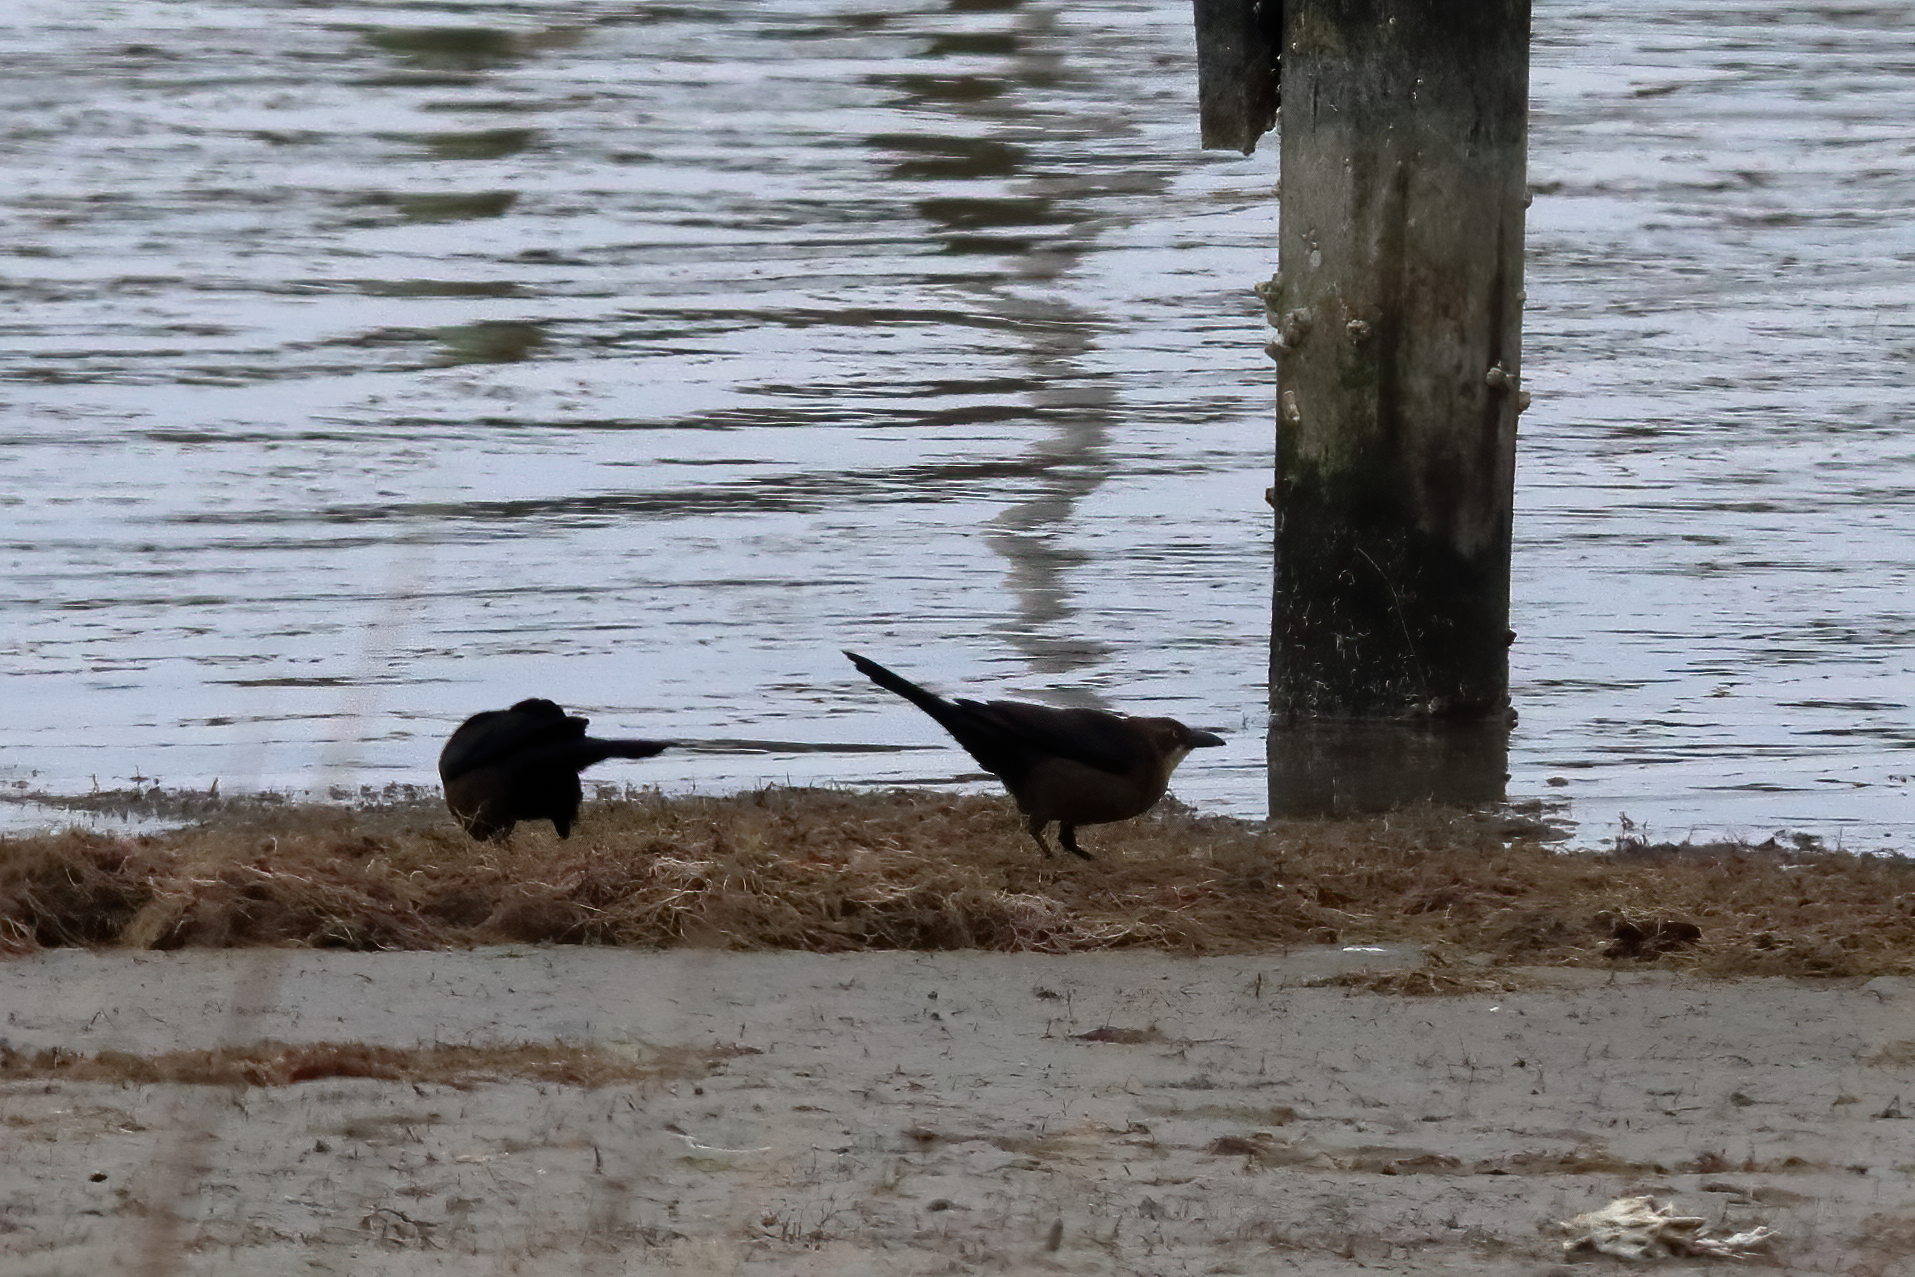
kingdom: Animalia
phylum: Chordata
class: Aves
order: Passeriformes
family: Icteridae
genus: Quiscalus
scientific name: Quiscalus mexicanus
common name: Great-tailed grackle
